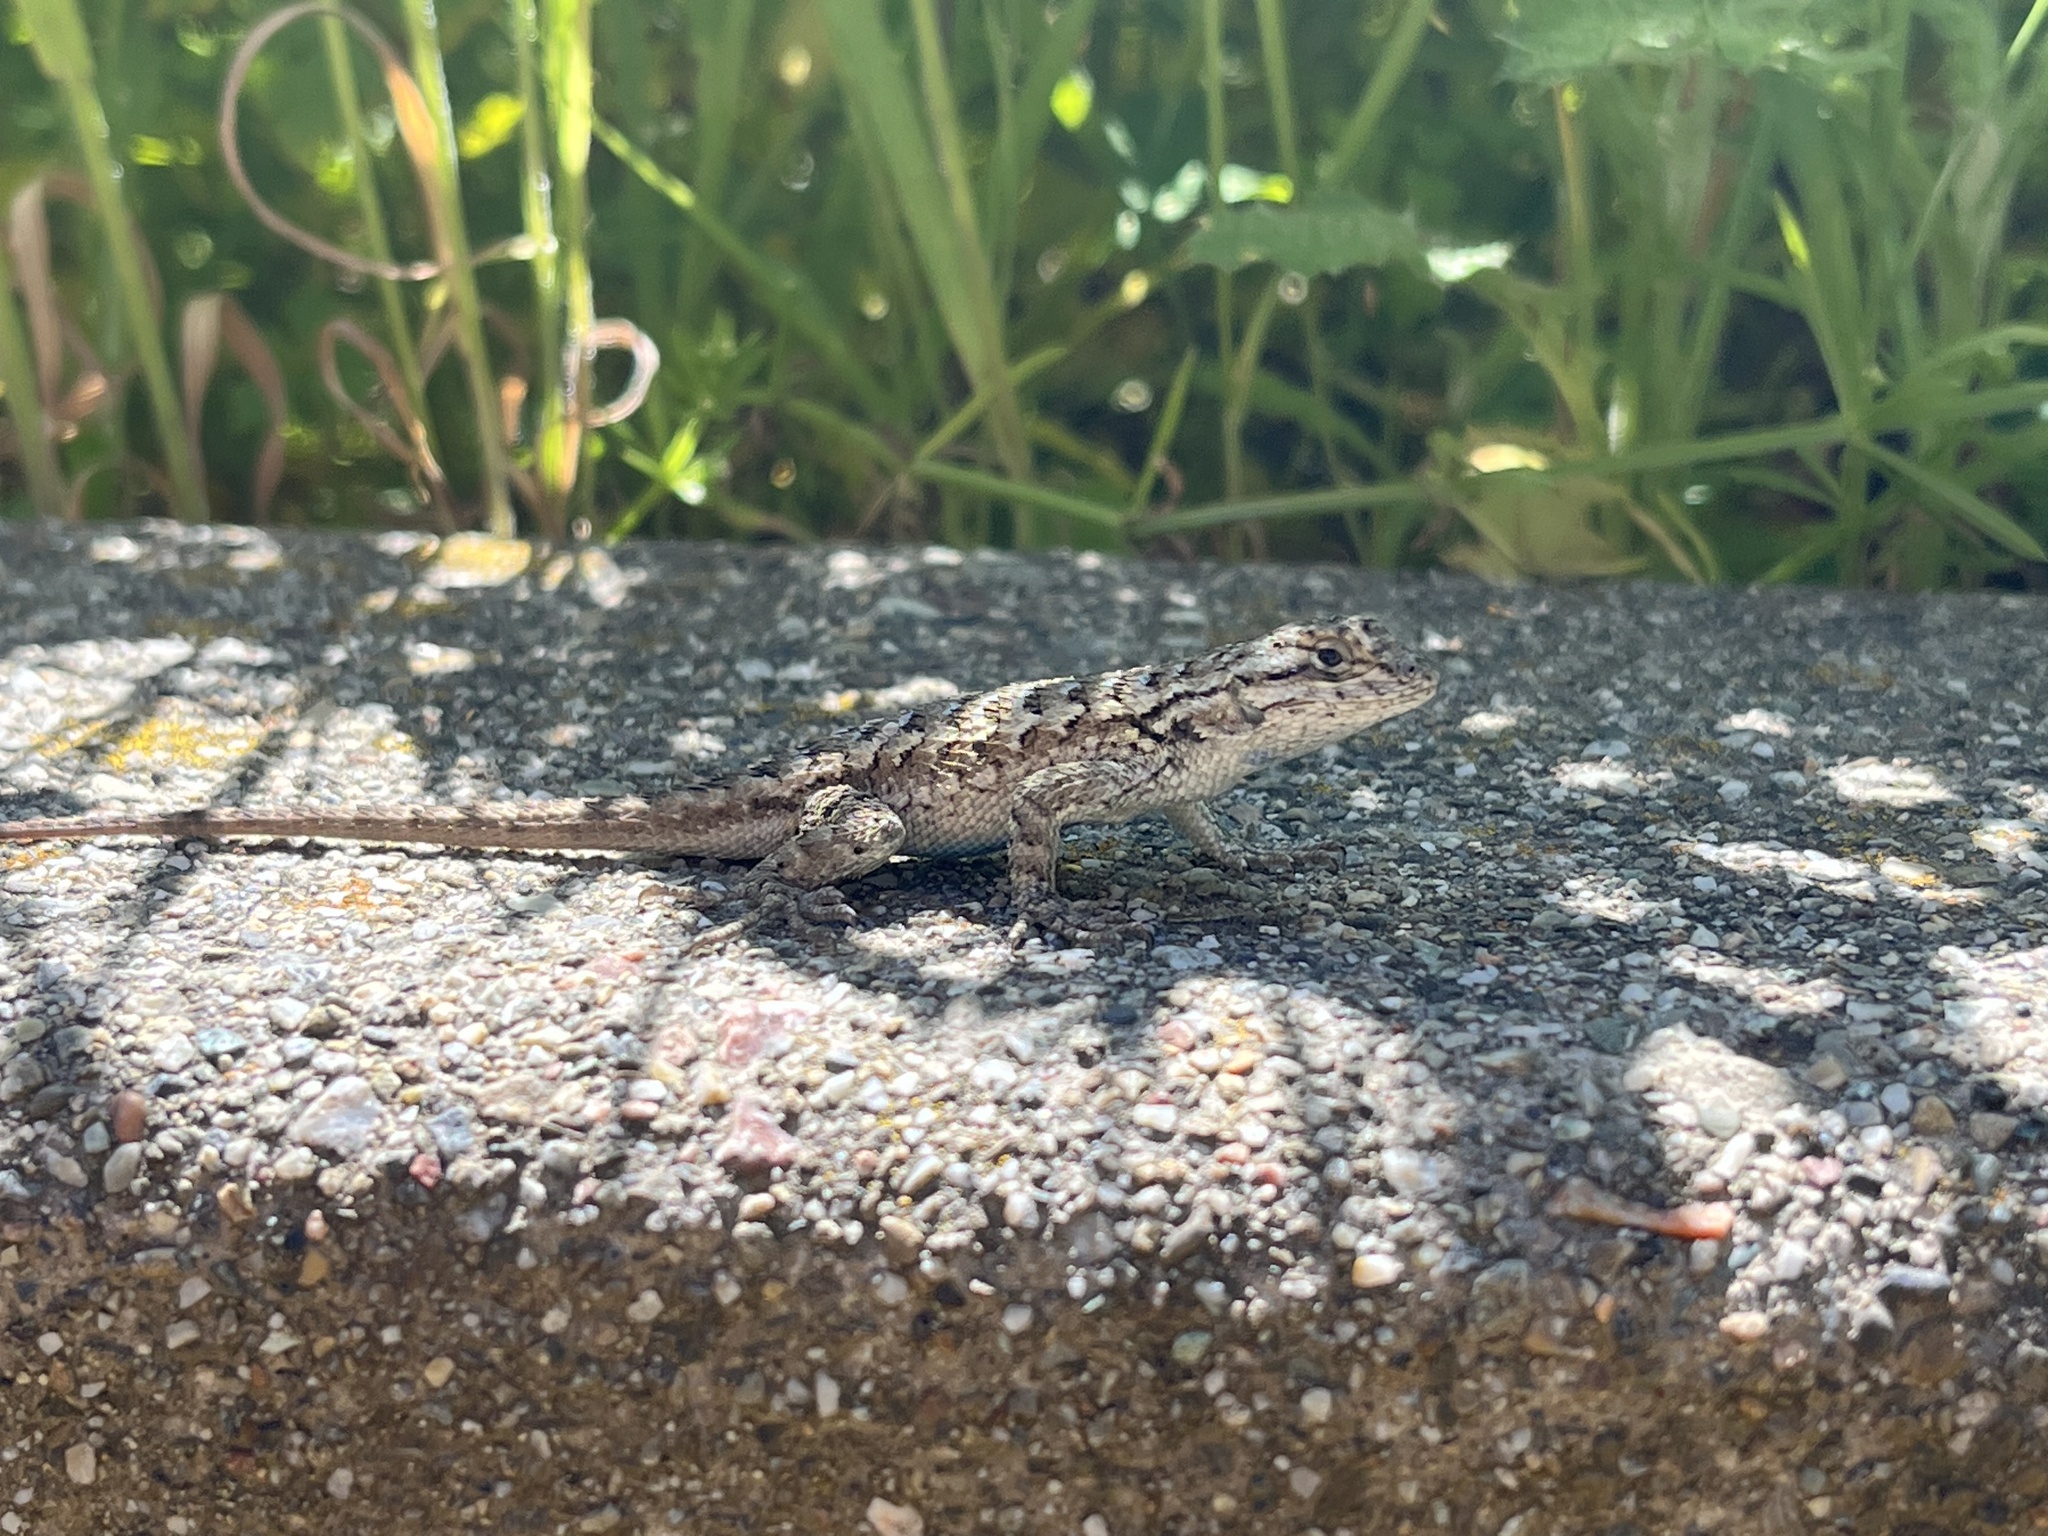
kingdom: Animalia
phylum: Chordata
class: Squamata
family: Phrynosomatidae
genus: Sceloporus
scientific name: Sceloporus occidentalis
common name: Western fence lizard
